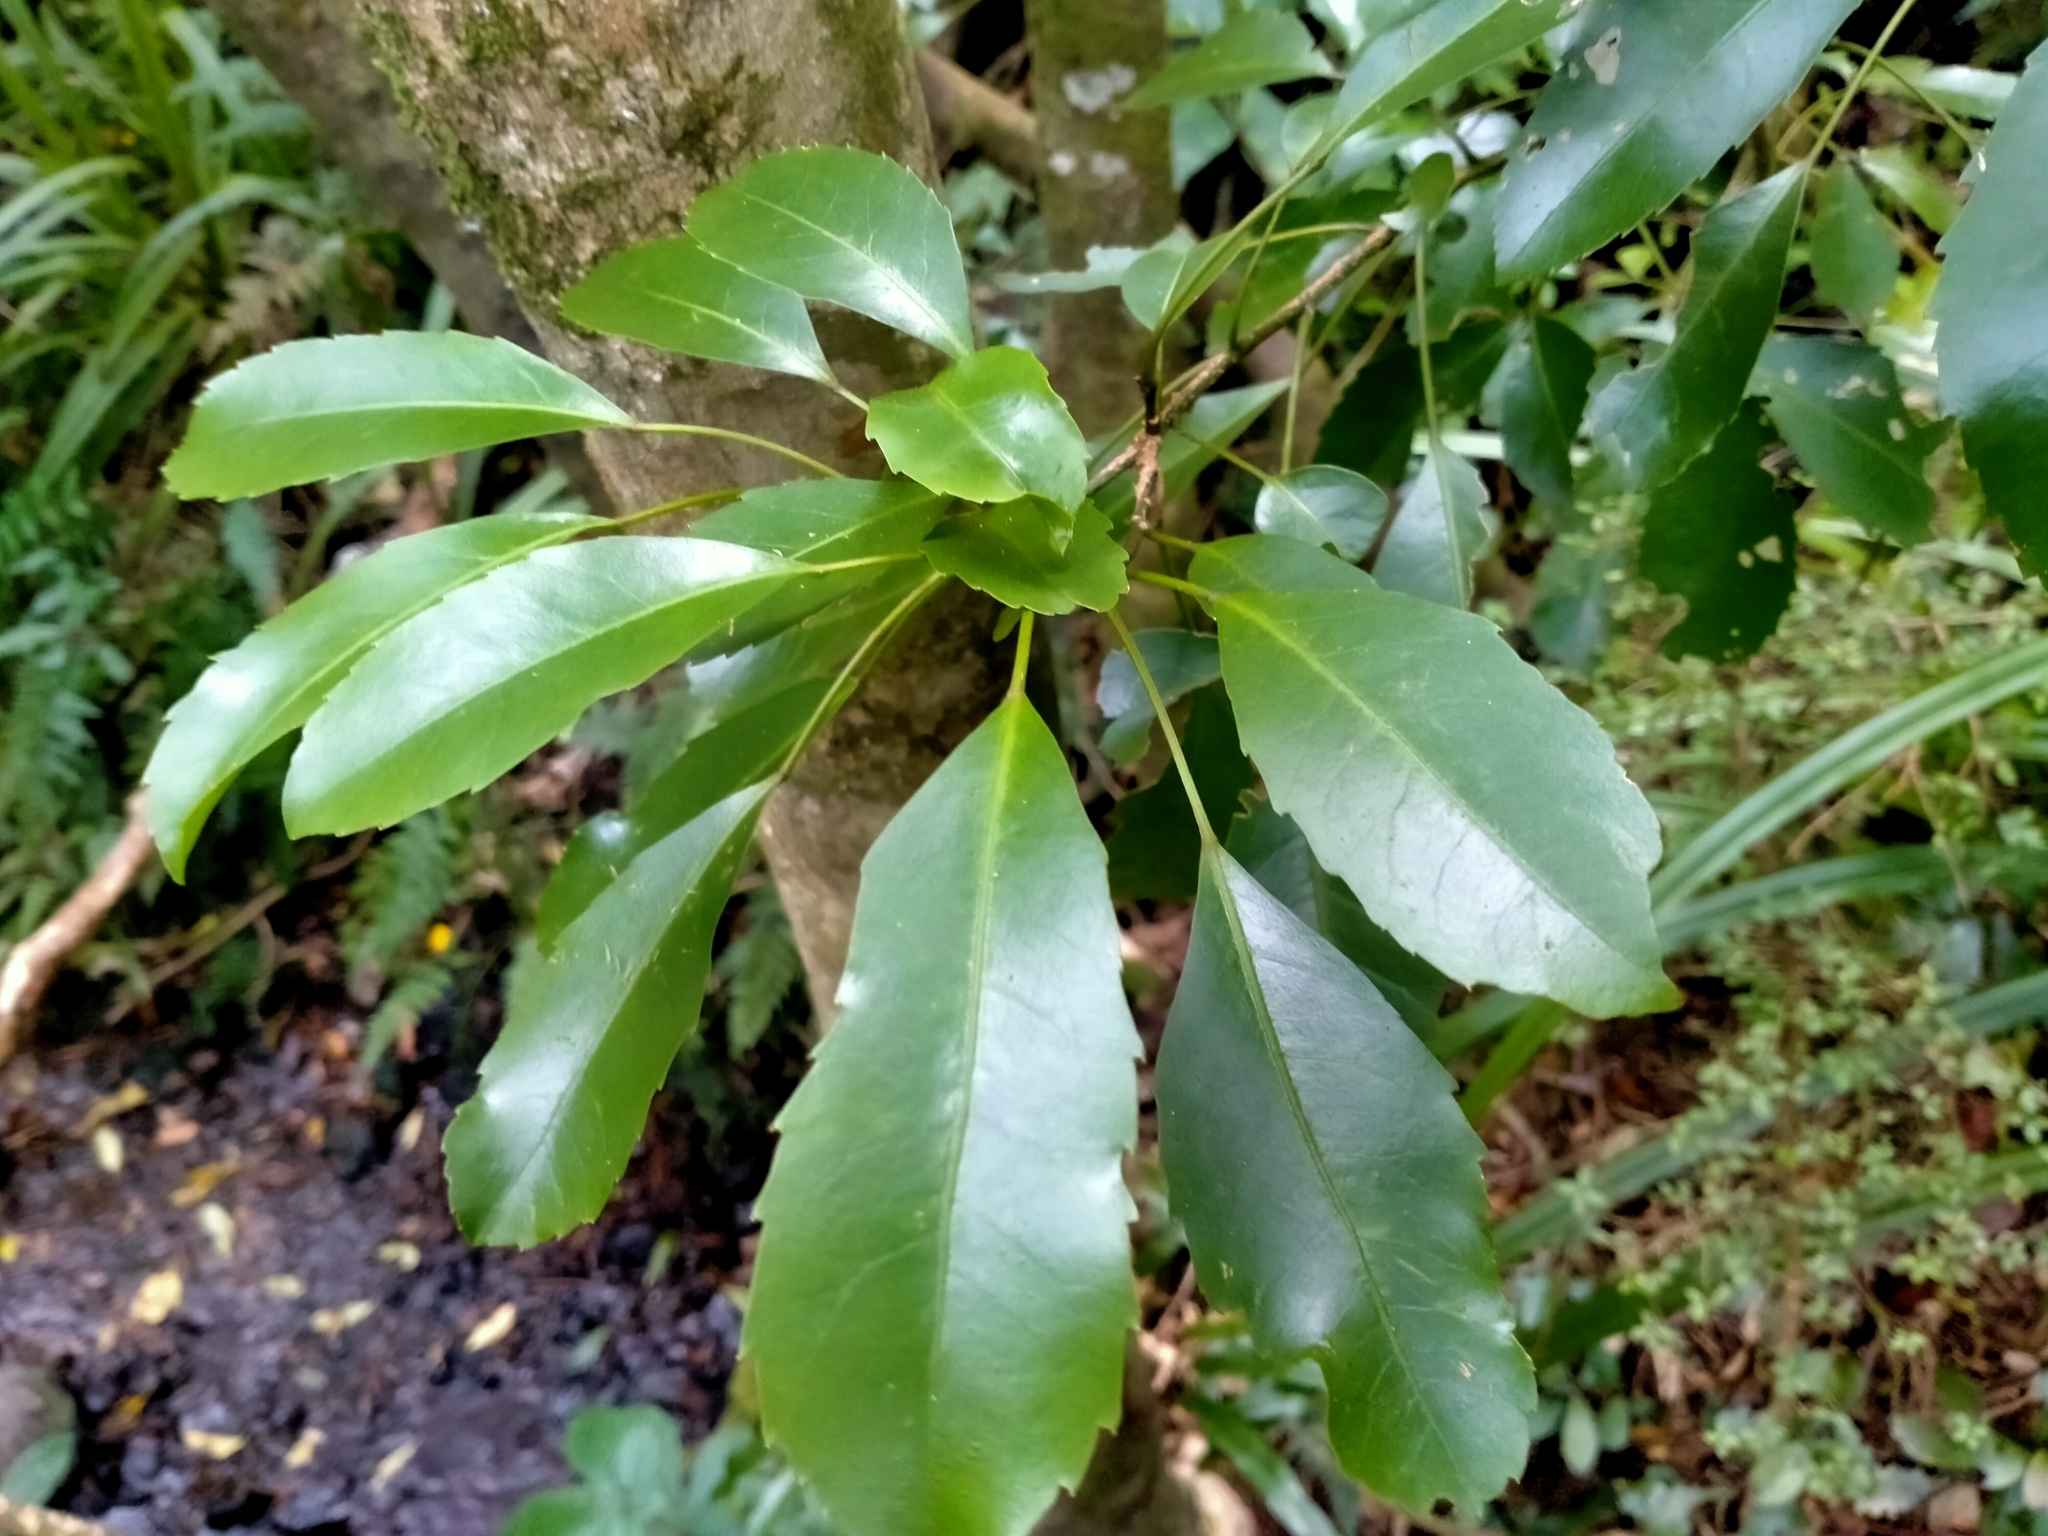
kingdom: Plantae
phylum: Tracheophyta
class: Magnoliopsida
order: Apiales
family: Araliaceae
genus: Raukaua
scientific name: Raukaua simplex
